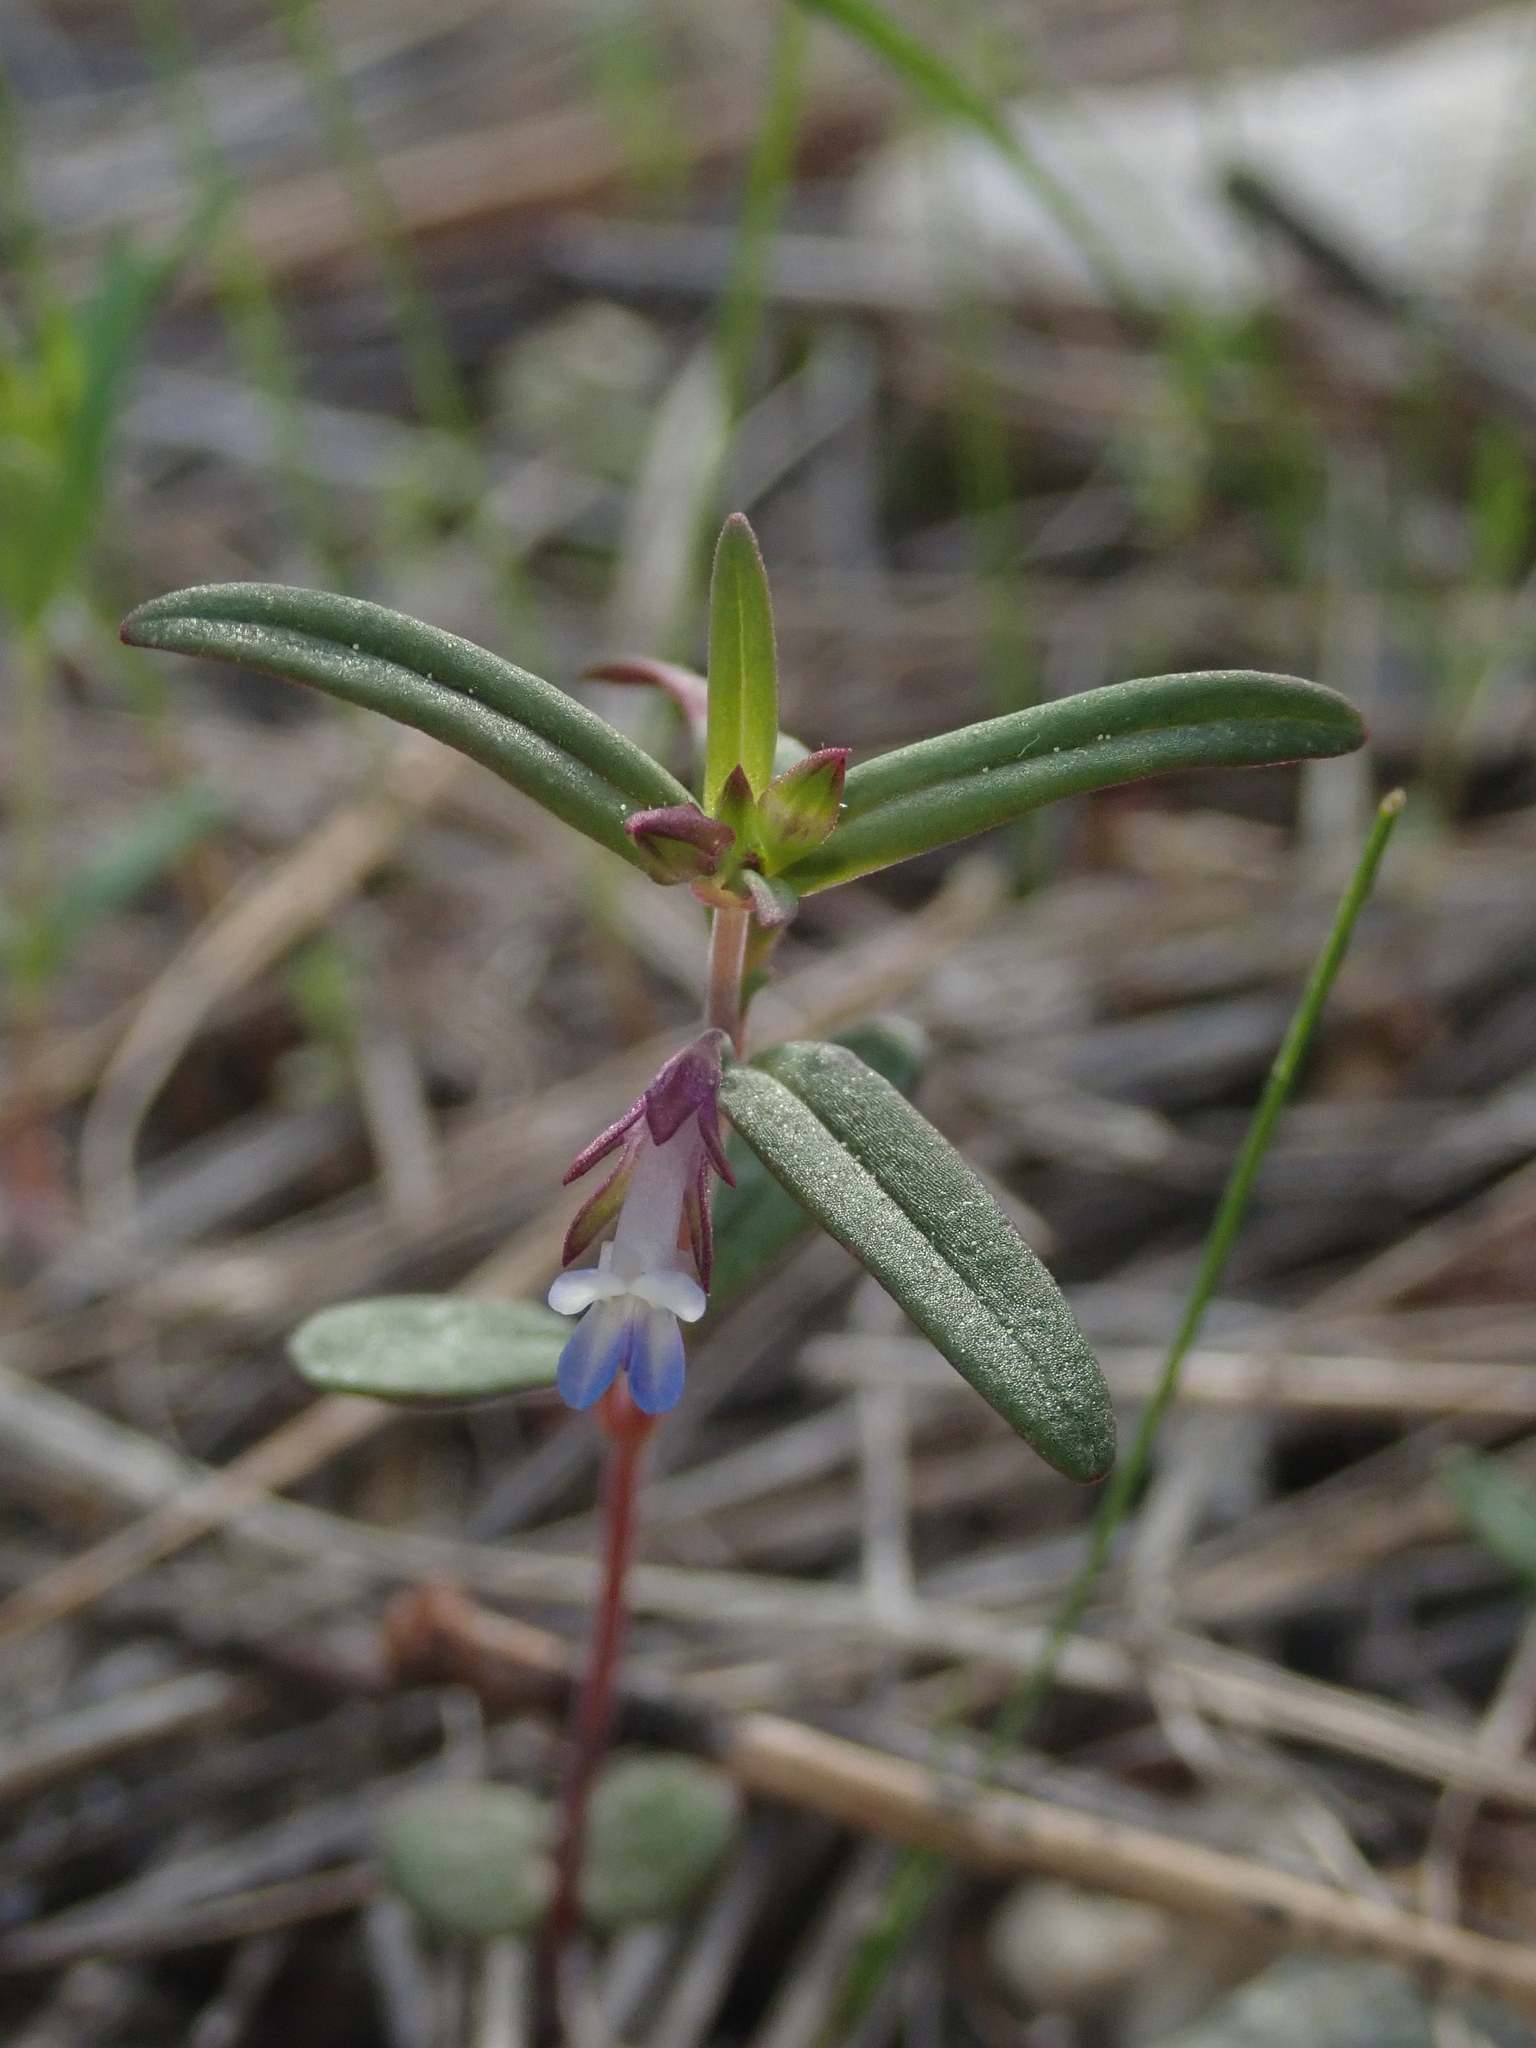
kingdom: Plantae
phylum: Tracheophyta
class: Magnoliopsida
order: Lamiales
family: Plantaginaceae
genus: Collinsia
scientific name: Collinsia parviflora
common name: Blue-lips
